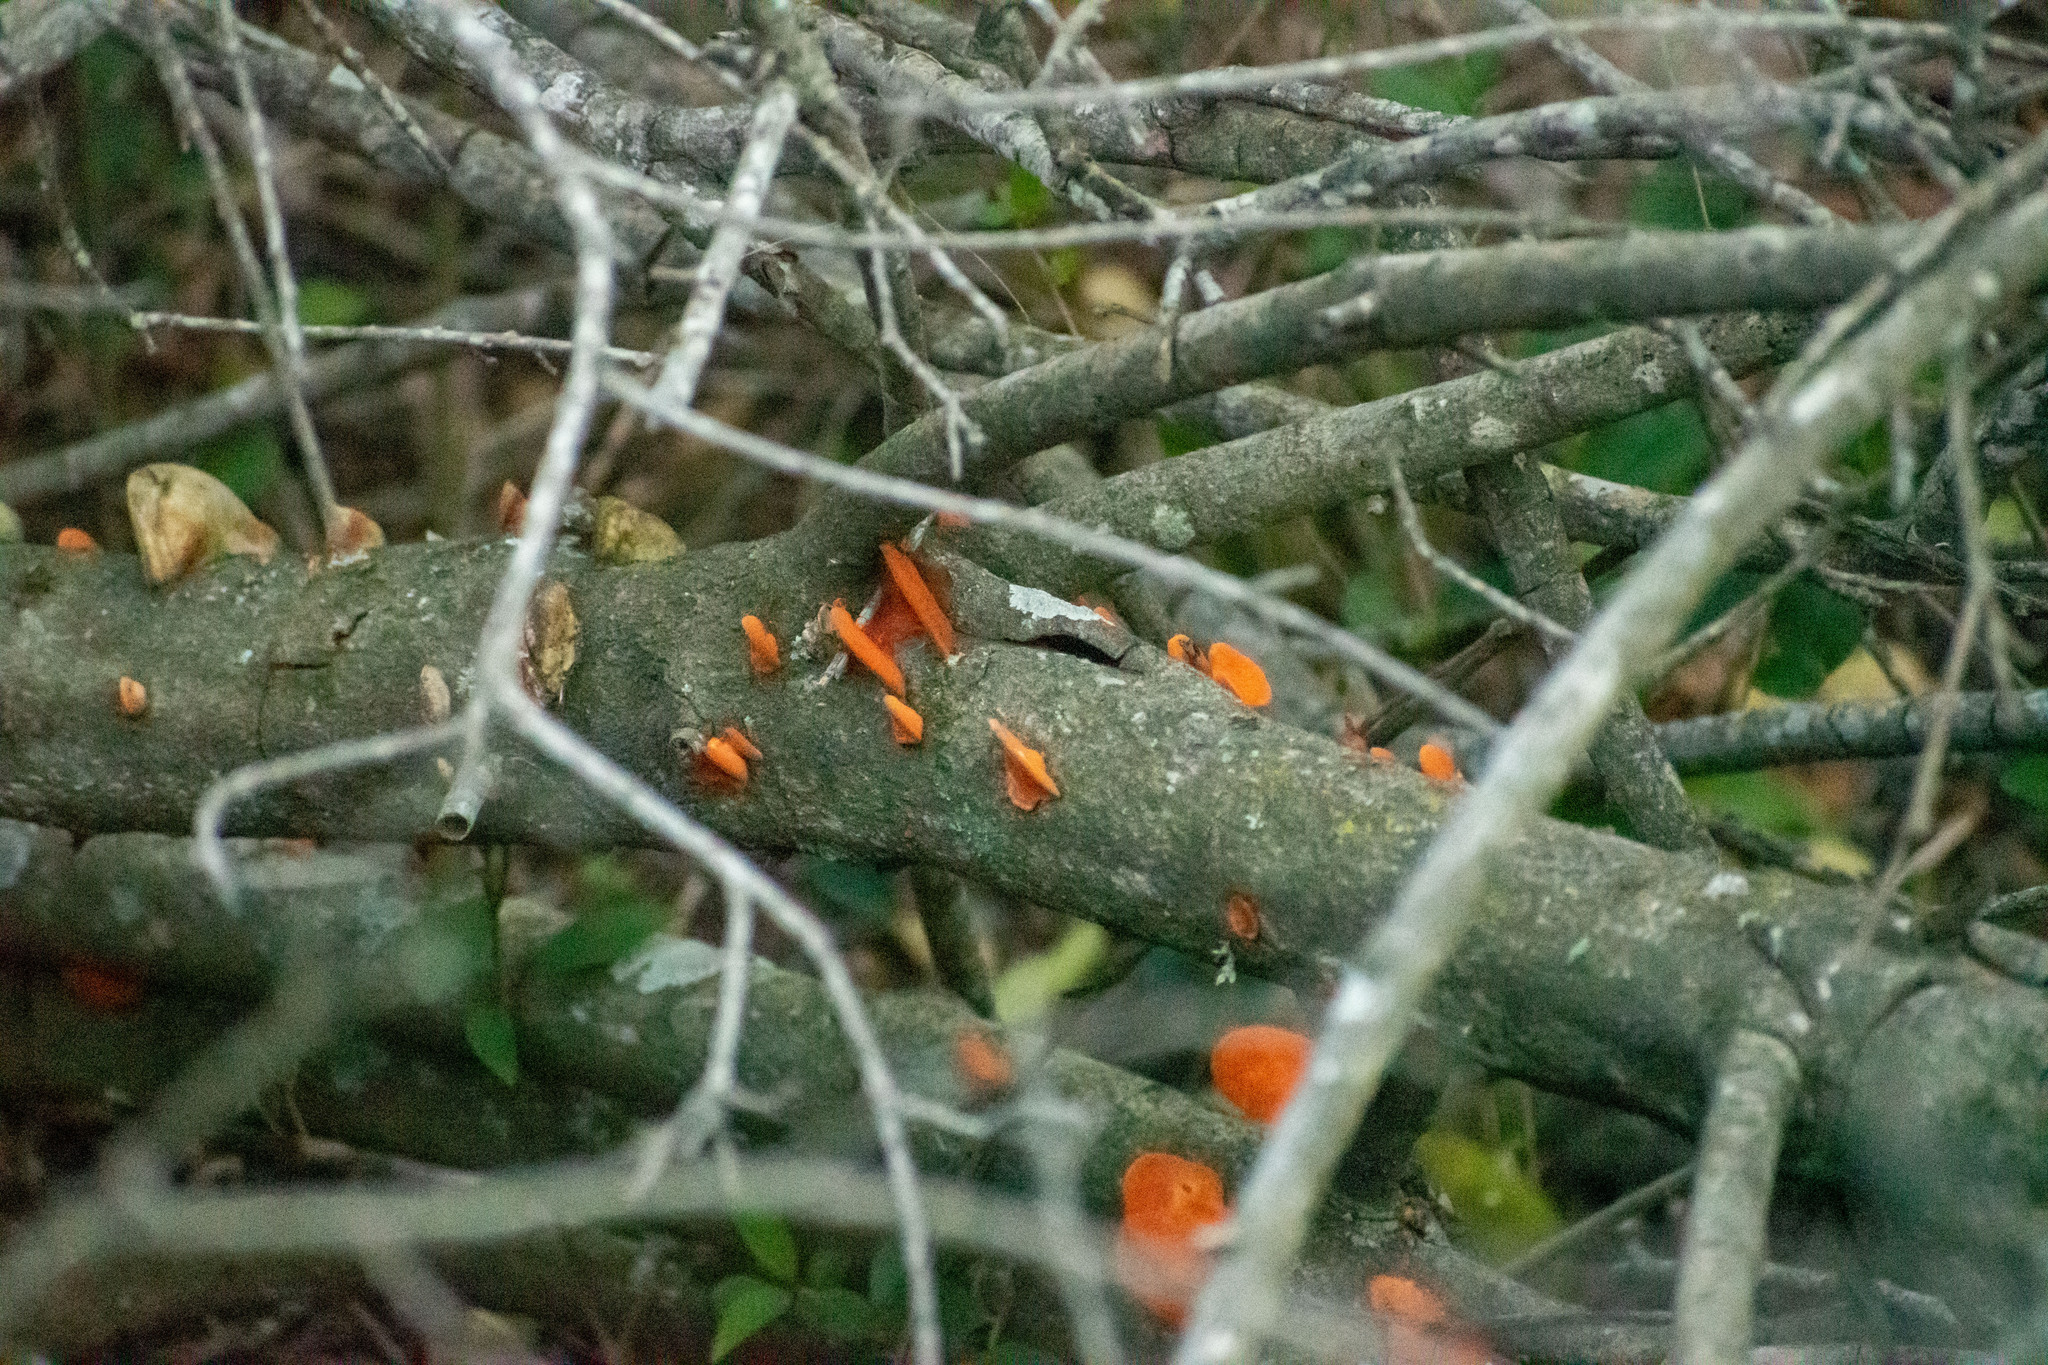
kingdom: Fungi
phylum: Basidiomycota
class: Agaricomycetes
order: Polyporales
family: Polyporaceae
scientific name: Polyporaceae
